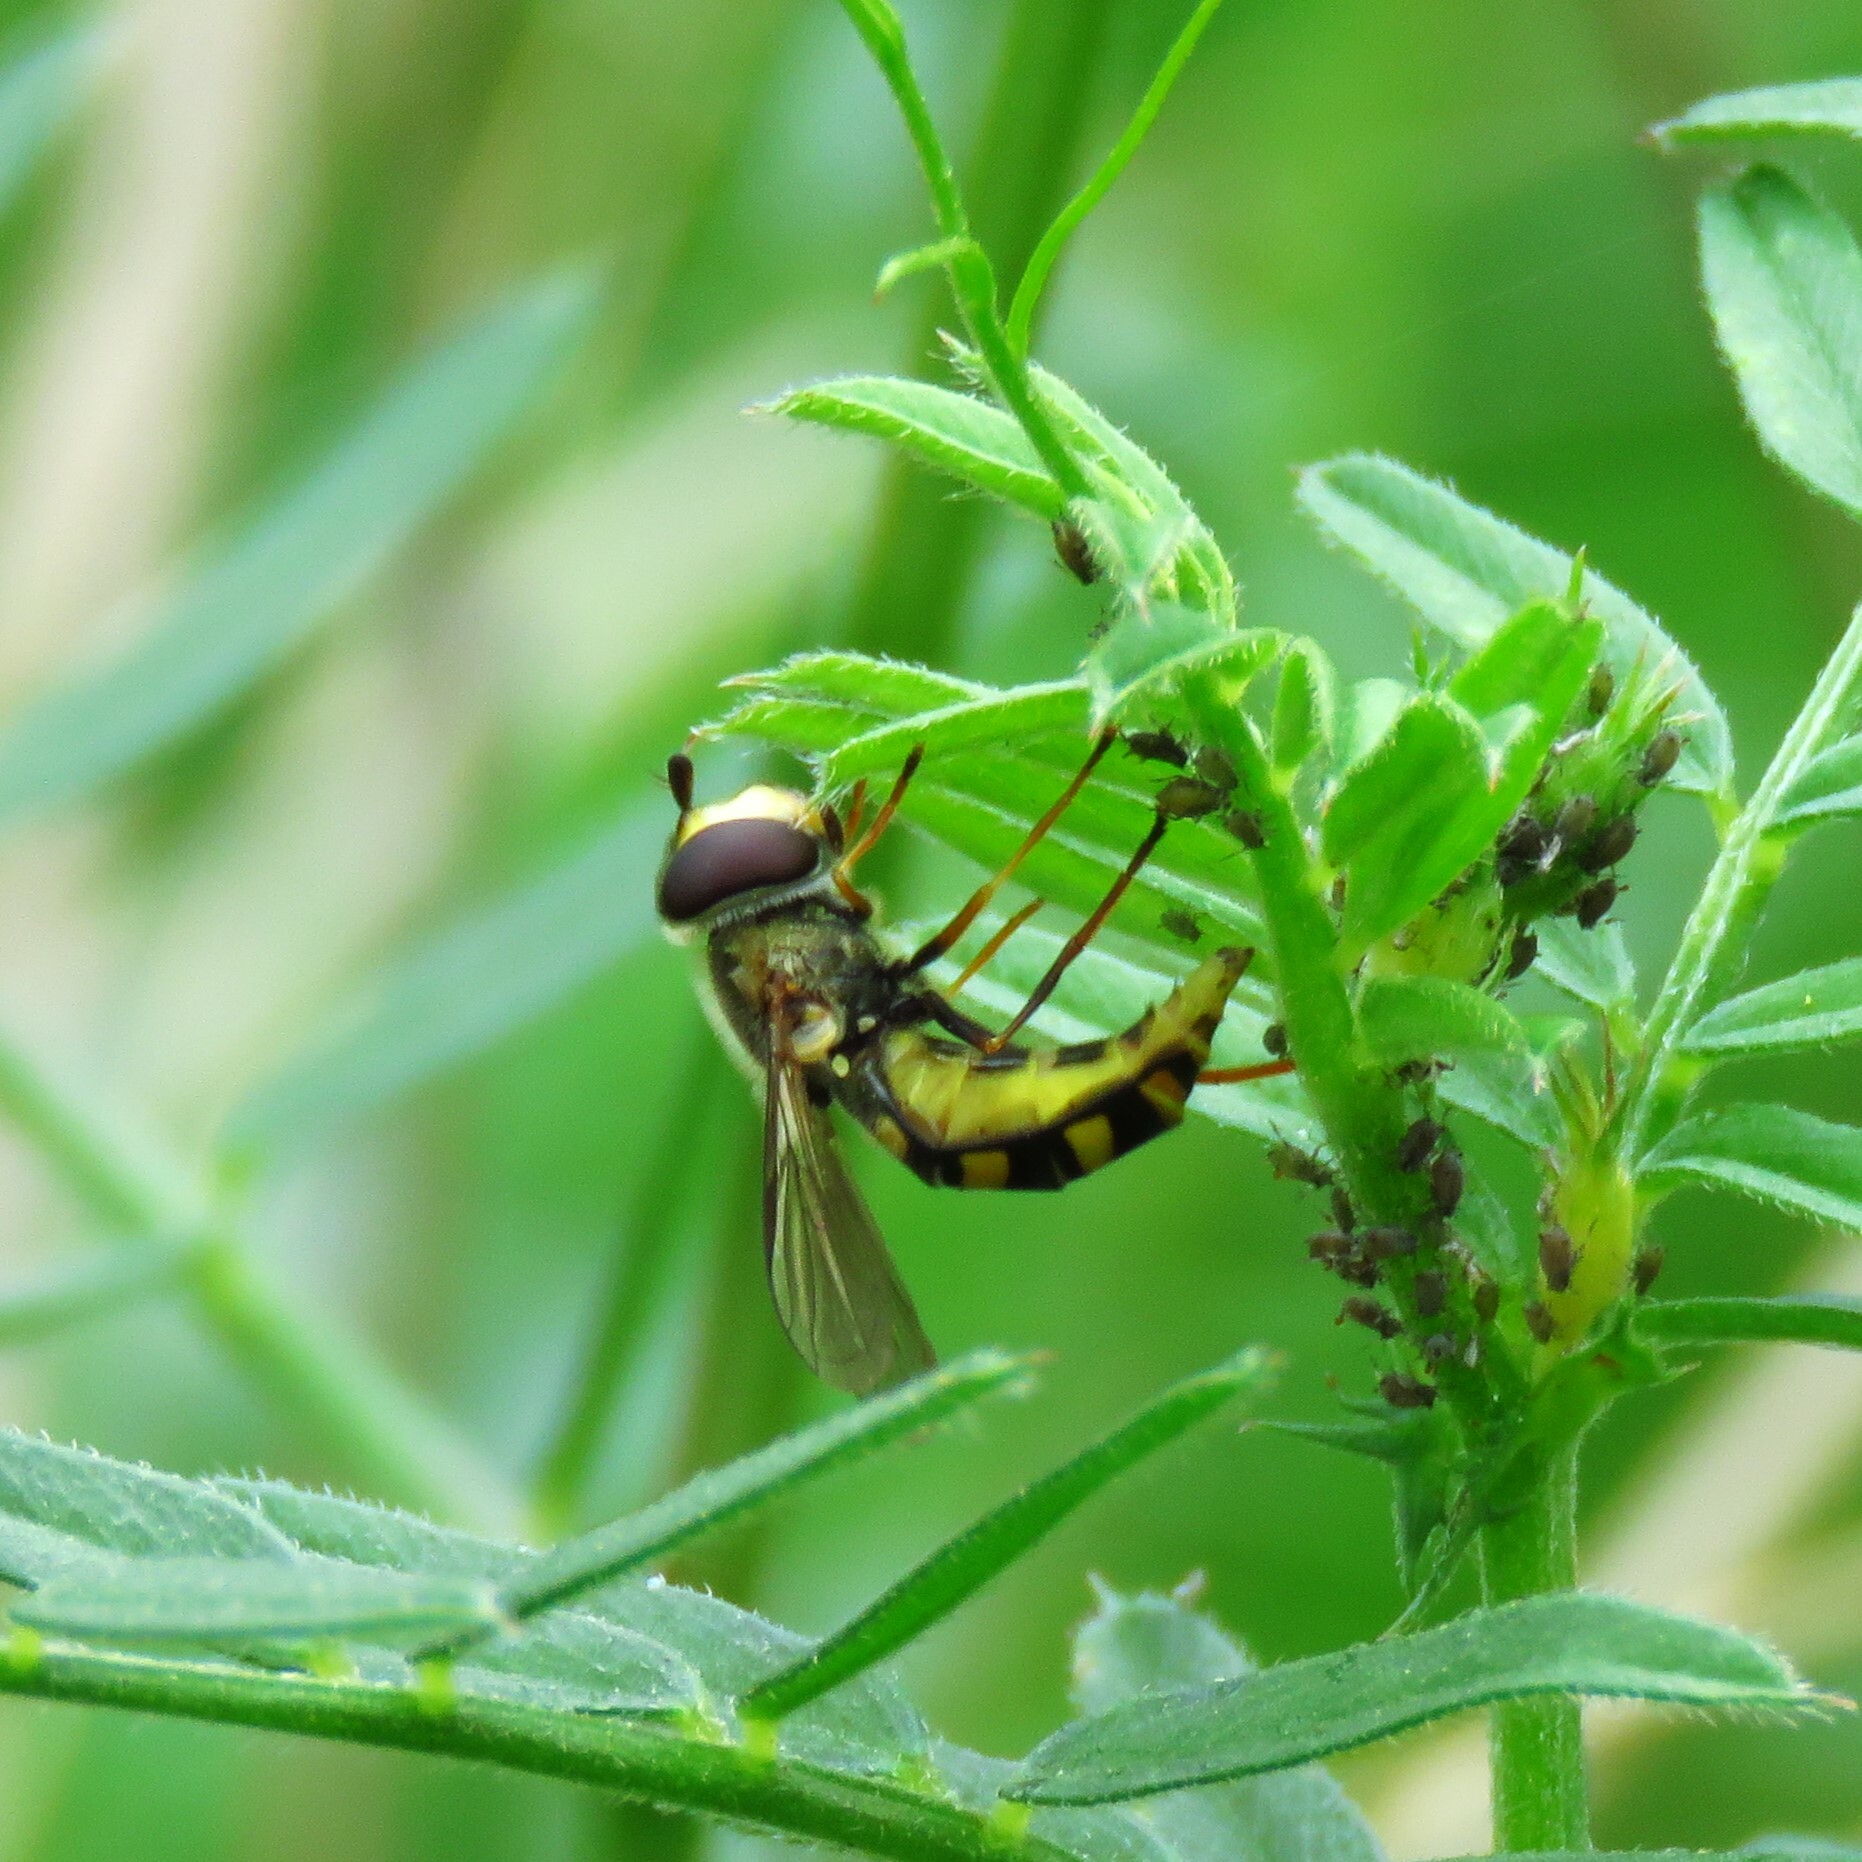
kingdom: Animalia
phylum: Arthropoda
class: Insecta
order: Diptera
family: Syrphidae
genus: Eupeodes
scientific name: Eupeodes
